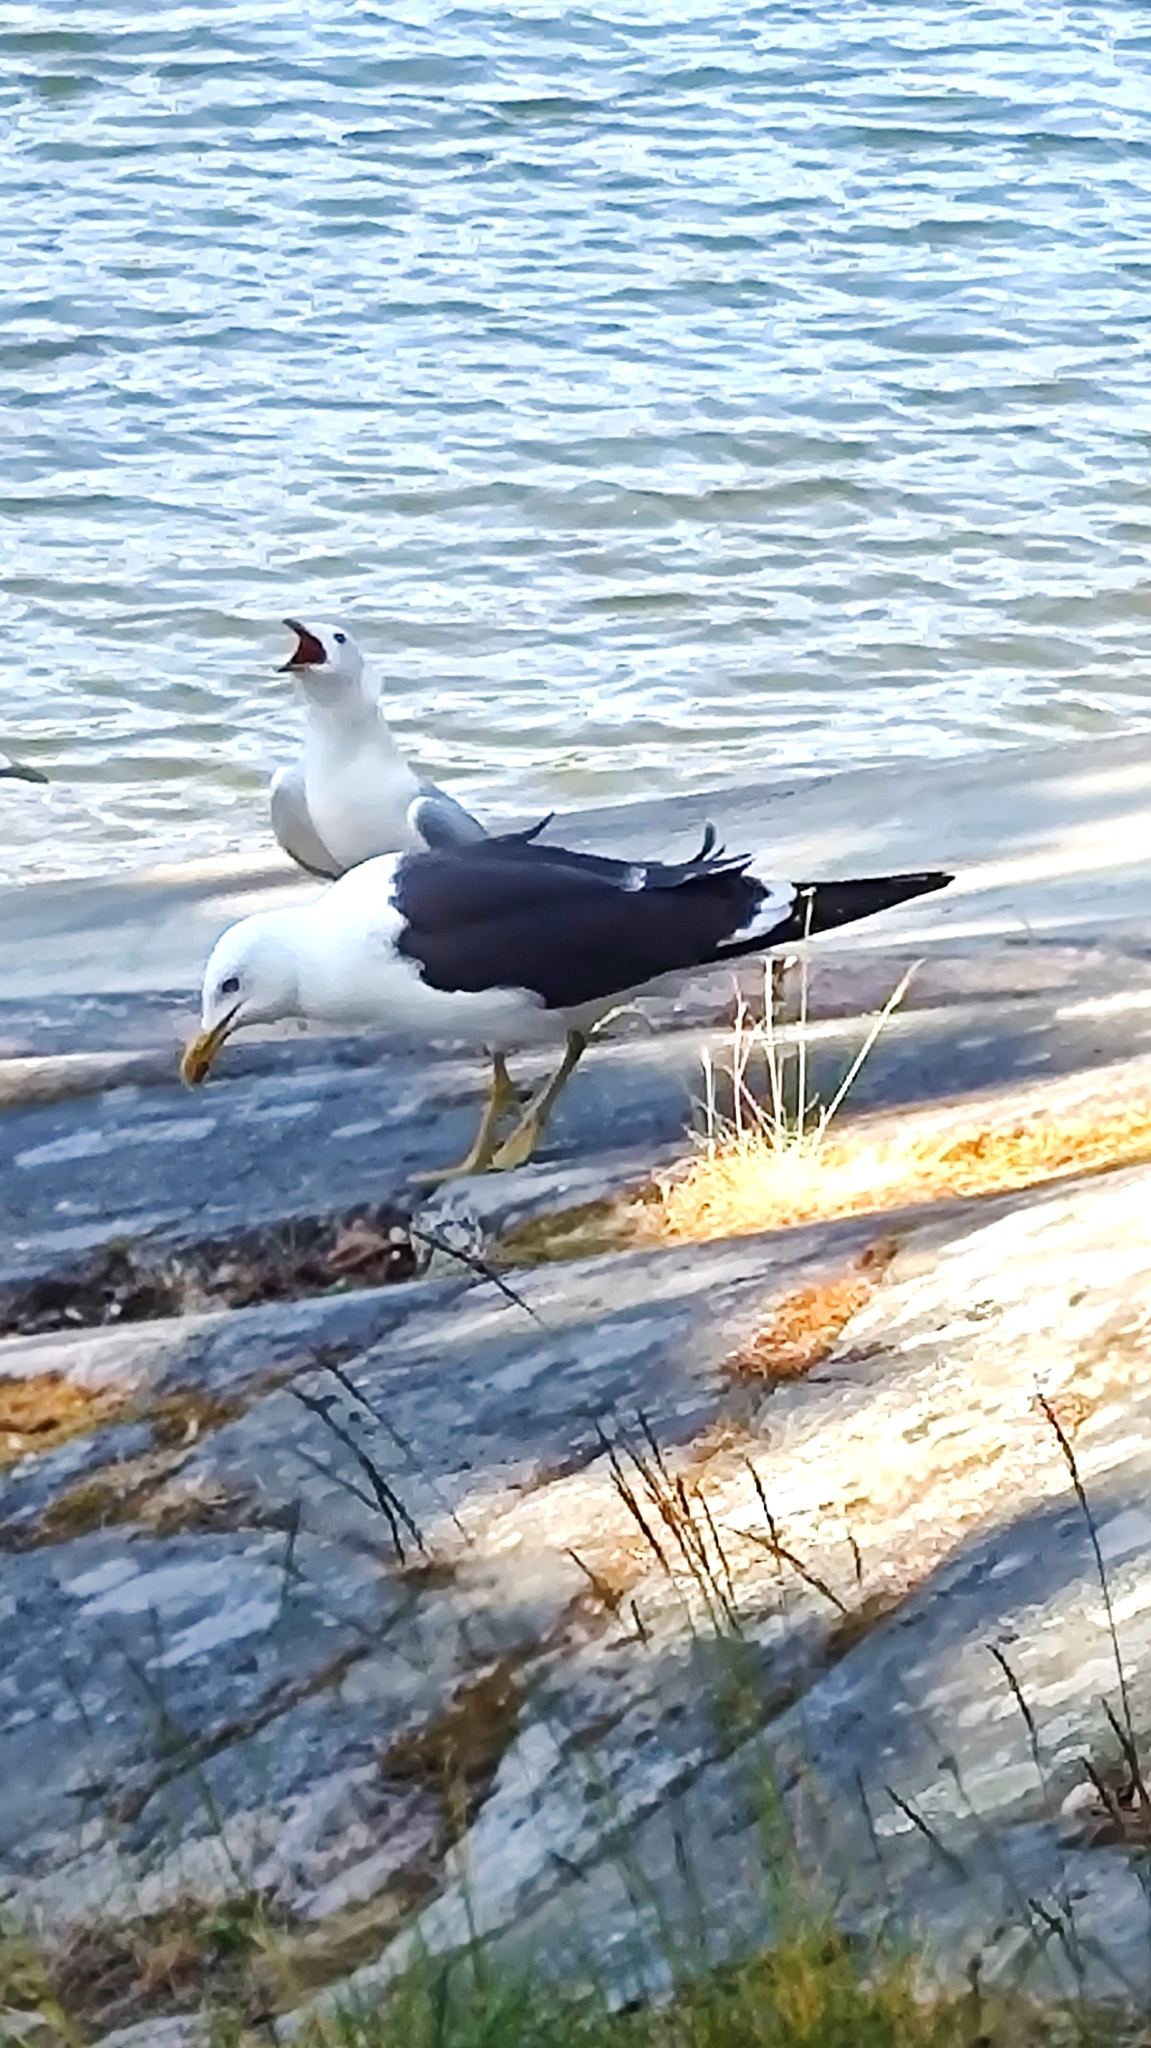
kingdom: Animalia
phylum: Chordata
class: Aves
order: Charadriiformes
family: Laridae
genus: Larus
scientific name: Larus canus
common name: Mew gull
